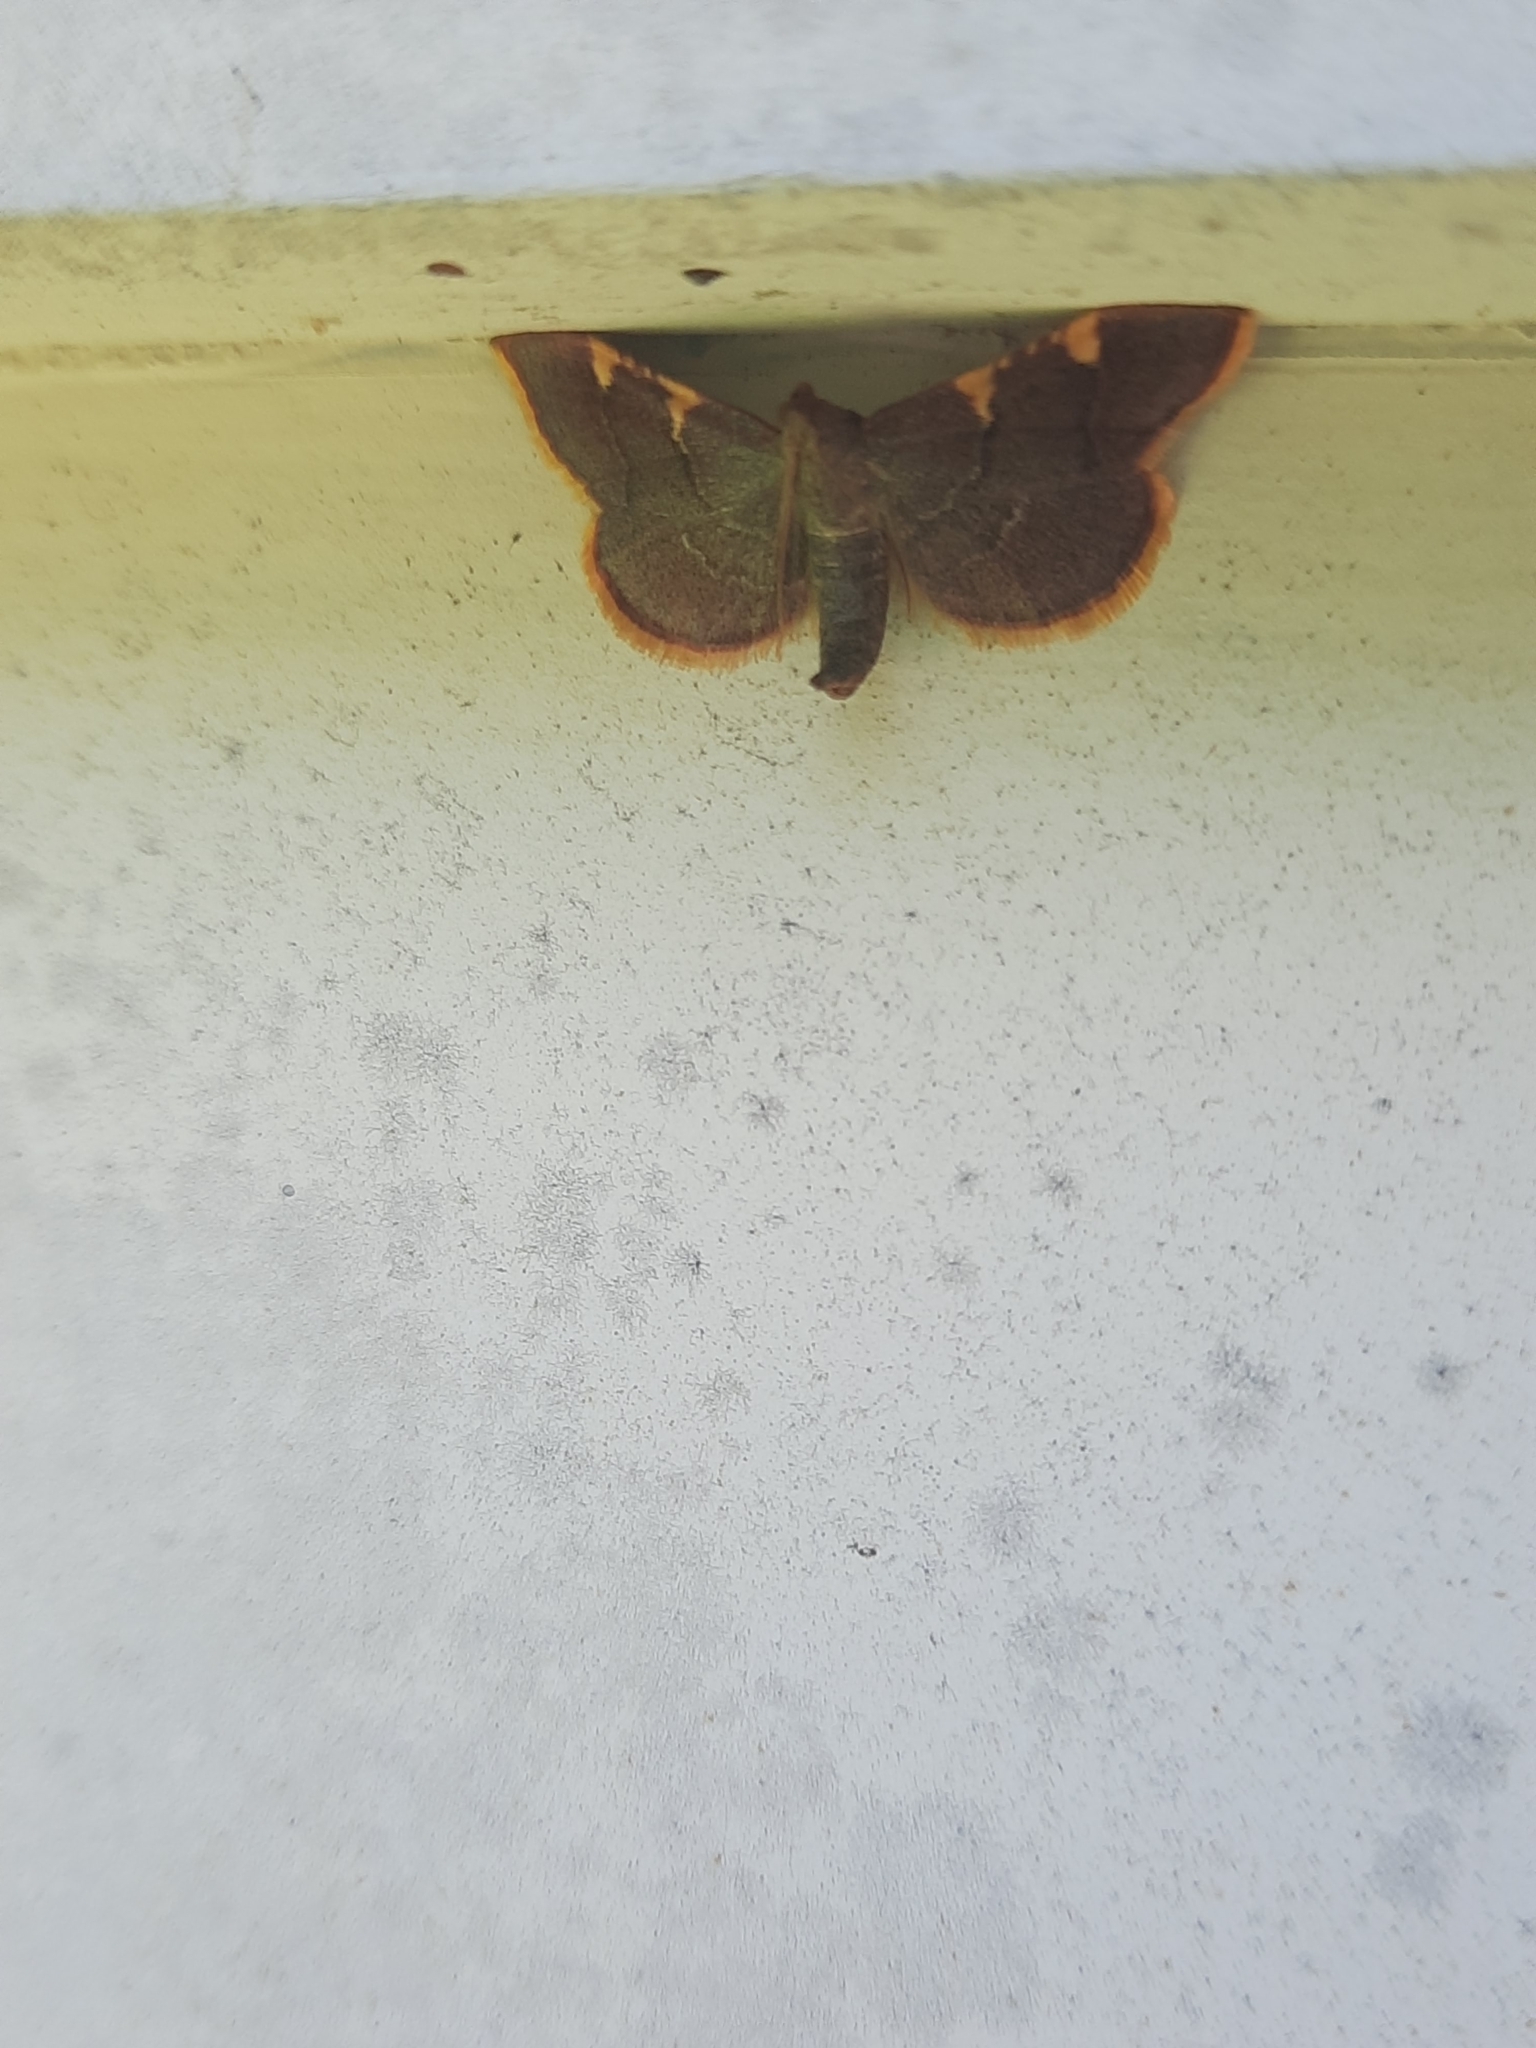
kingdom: Animalia
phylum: Arthropoda
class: Insecta
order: Lepidoptera
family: Pyralidae
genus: Hypsopygia
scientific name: Hypsopygia olinalis
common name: Yellow-fringed dolichomia moth
